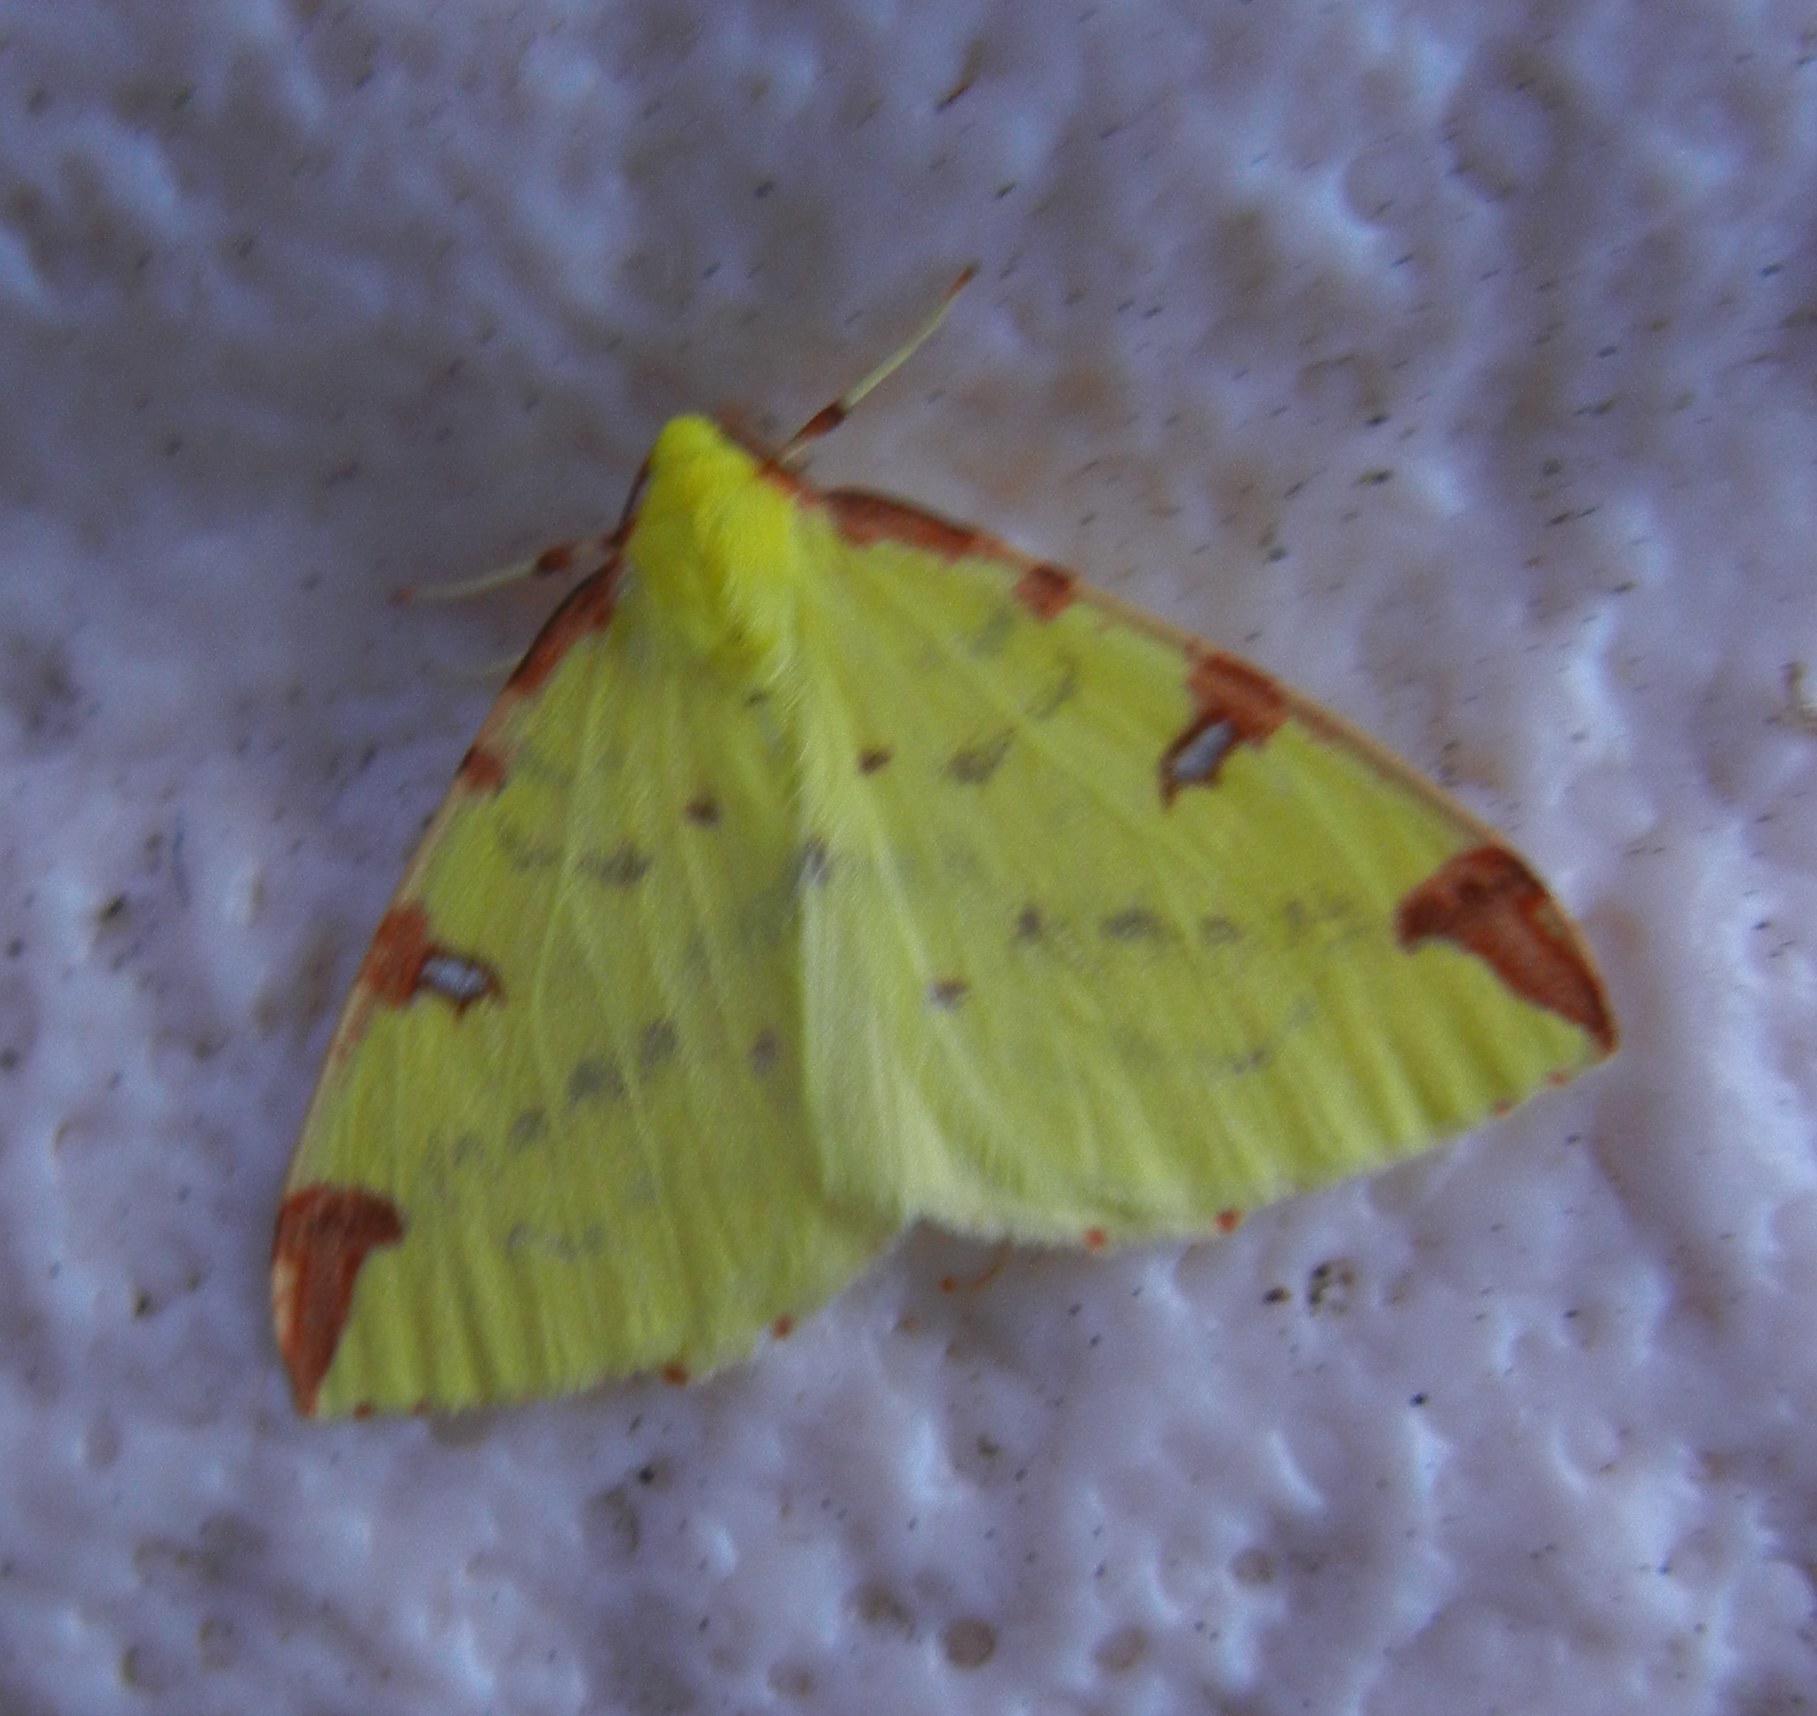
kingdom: Animalia
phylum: Arthropoda
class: Insecta
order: Lepidoptera
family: Geometridae
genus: Opisthograptis
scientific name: Opisthograptis luteolata
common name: Brimstone moth
